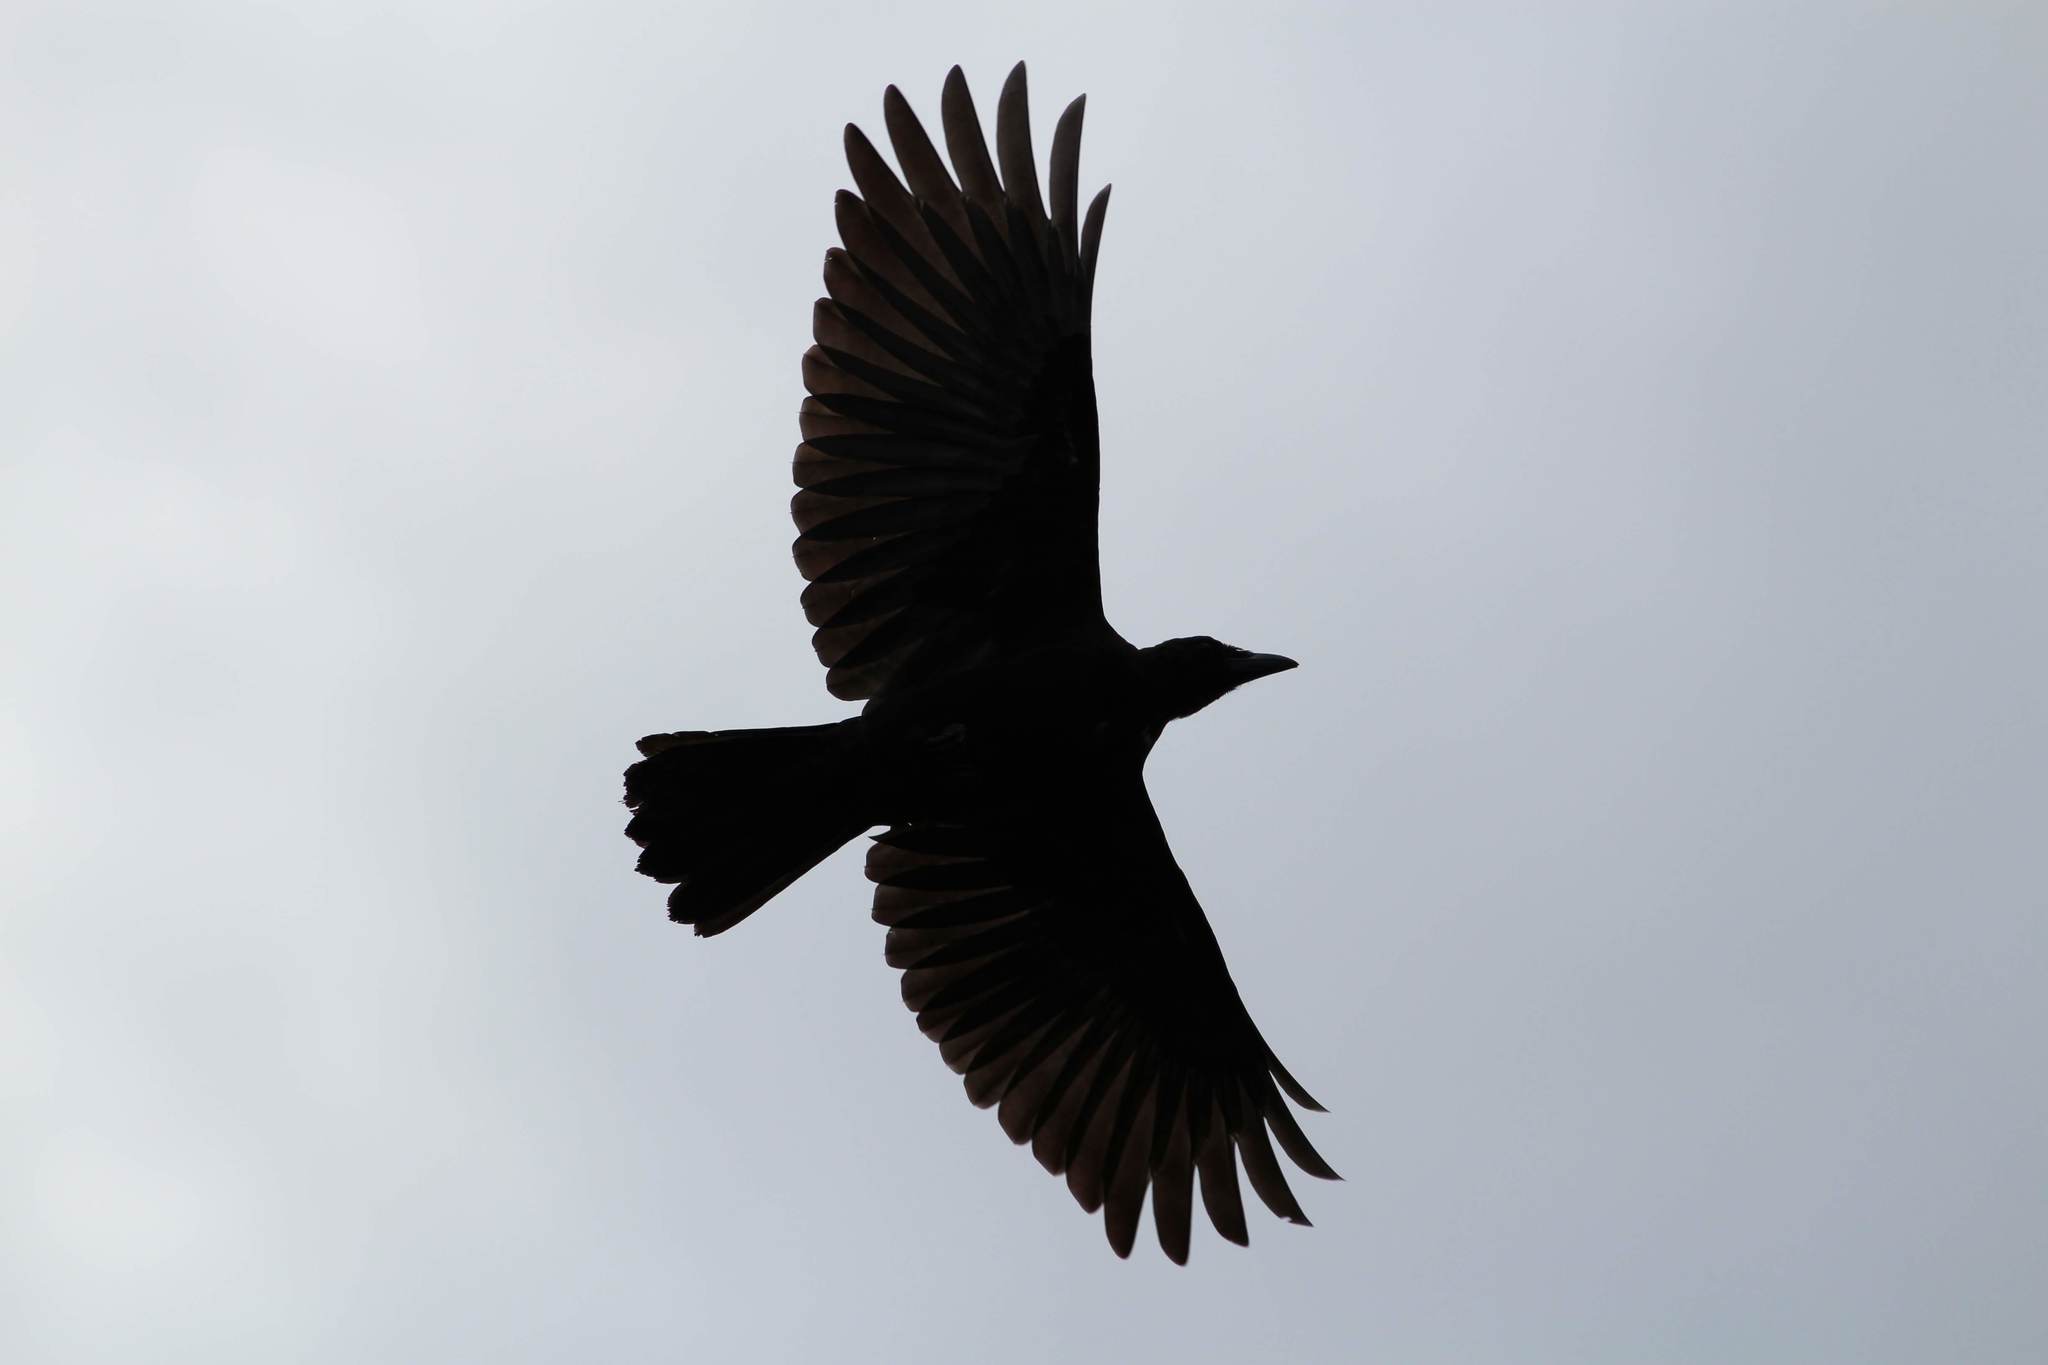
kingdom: Animalia
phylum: Chordata
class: Aves
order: Passeriformes
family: Corvidae
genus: Corvus
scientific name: Corvus brachyrhynchos
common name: American crow
